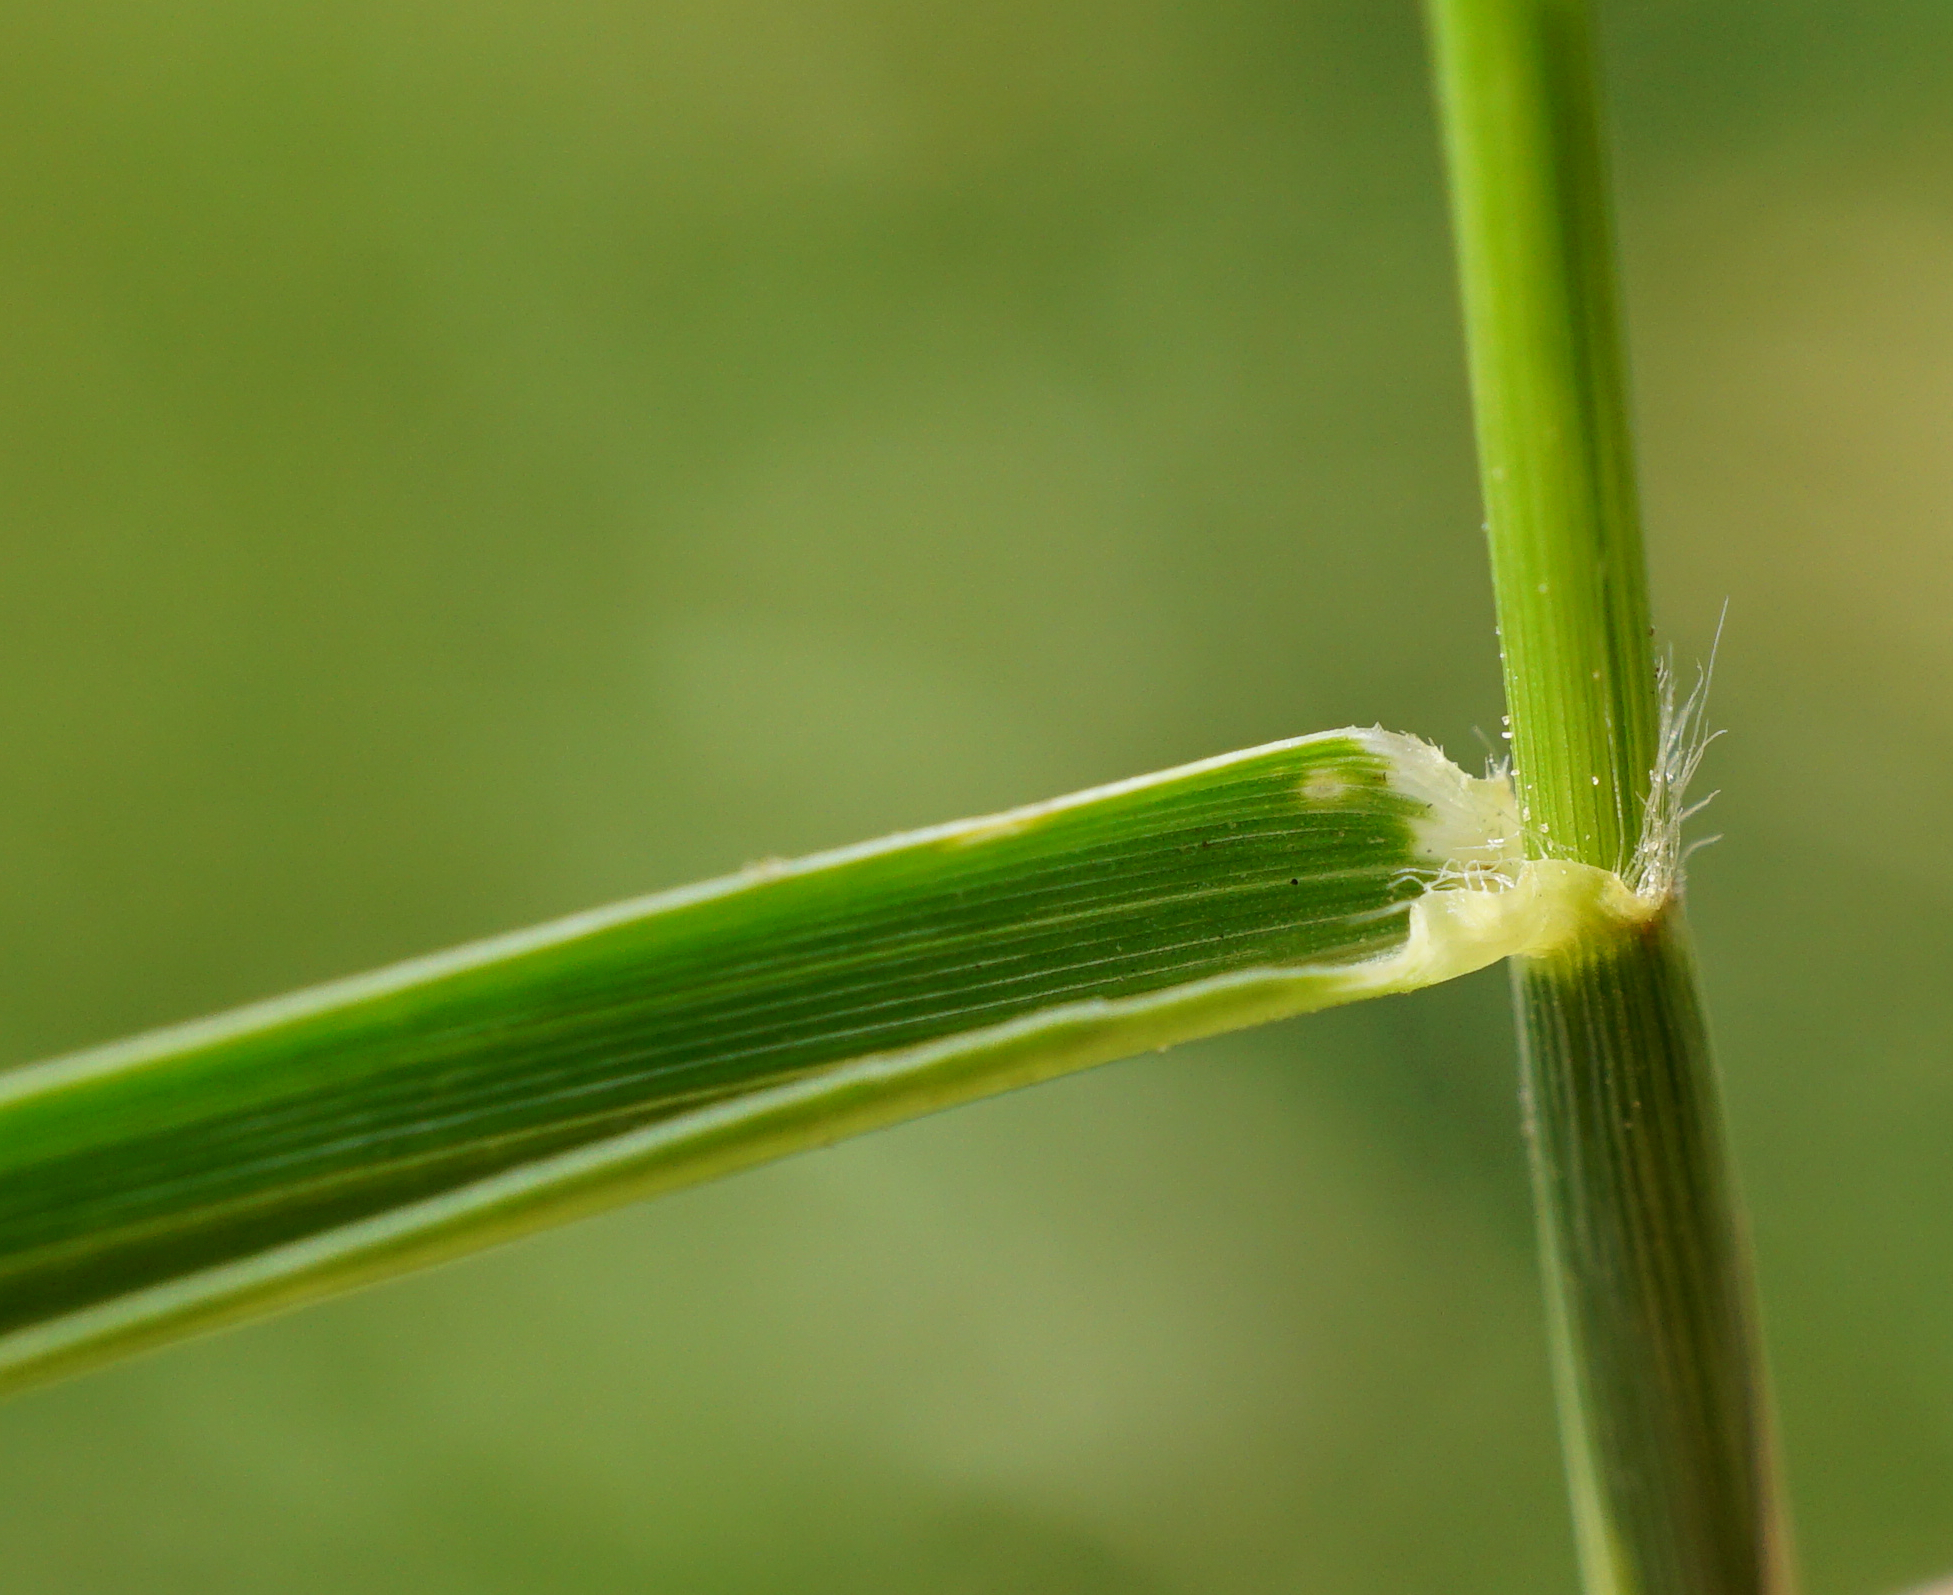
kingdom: Plantae
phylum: Tracheophyta
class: Liliopsida
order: Poales
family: Poaceae
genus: Cynodon
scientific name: Cynodon dactylon
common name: Bermuda grass
